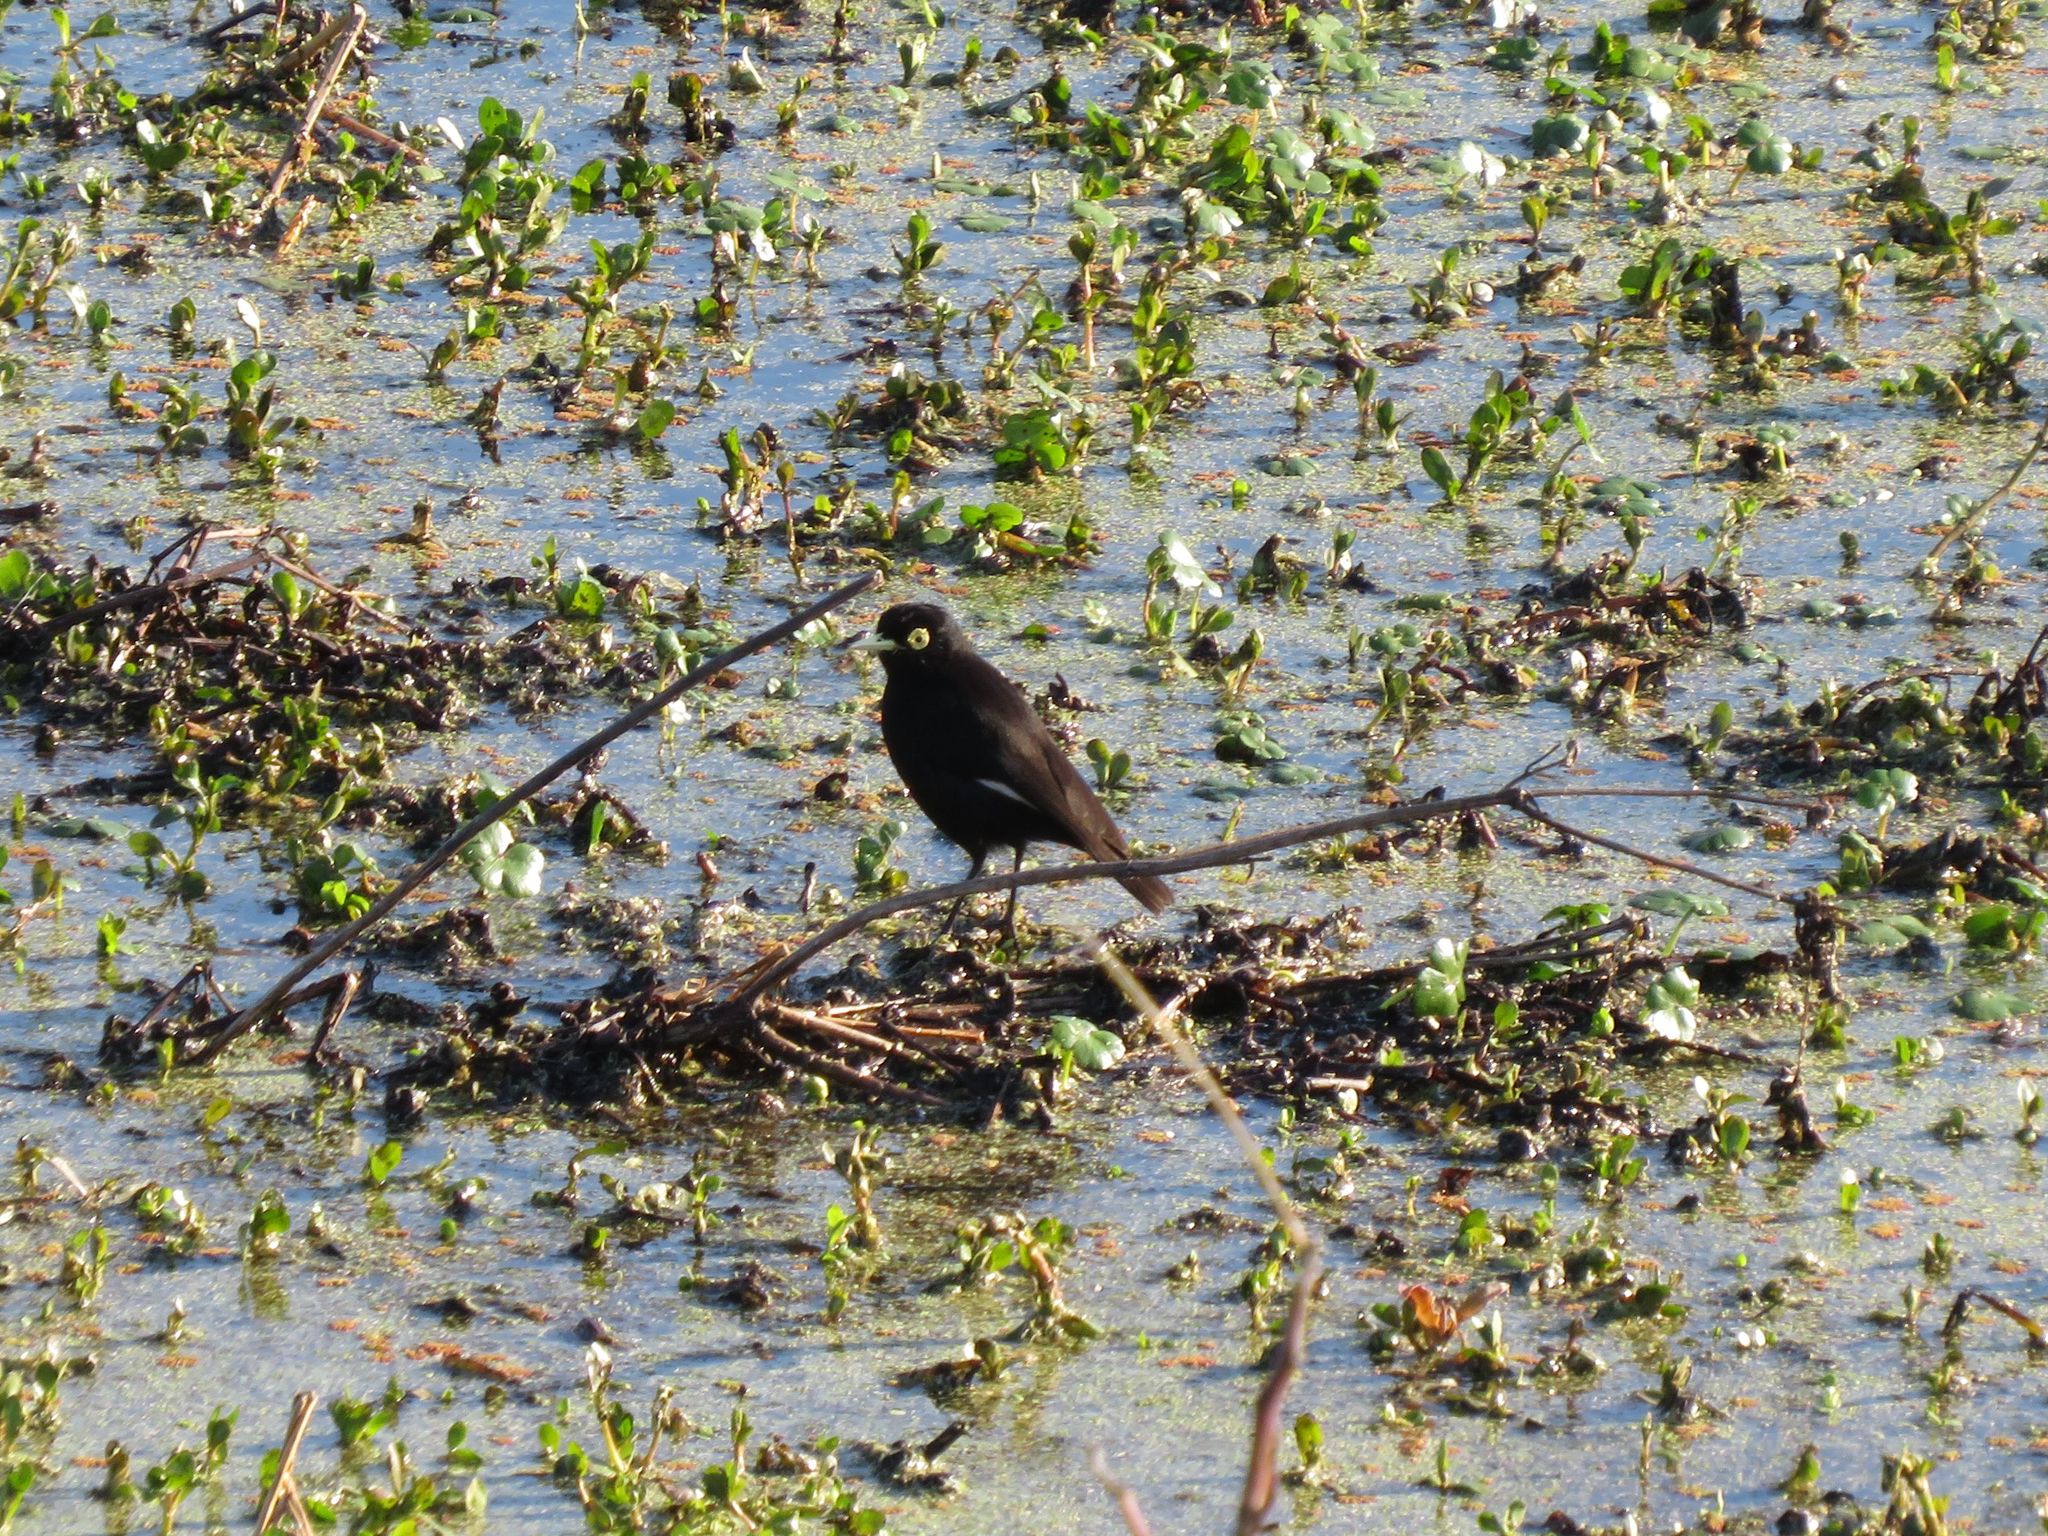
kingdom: Animalia
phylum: Chordata
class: Aves
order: Passeriformes
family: Tyrannidae
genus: Hymenops
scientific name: Hymenops perspicillatus
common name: Spectacled tyrant
